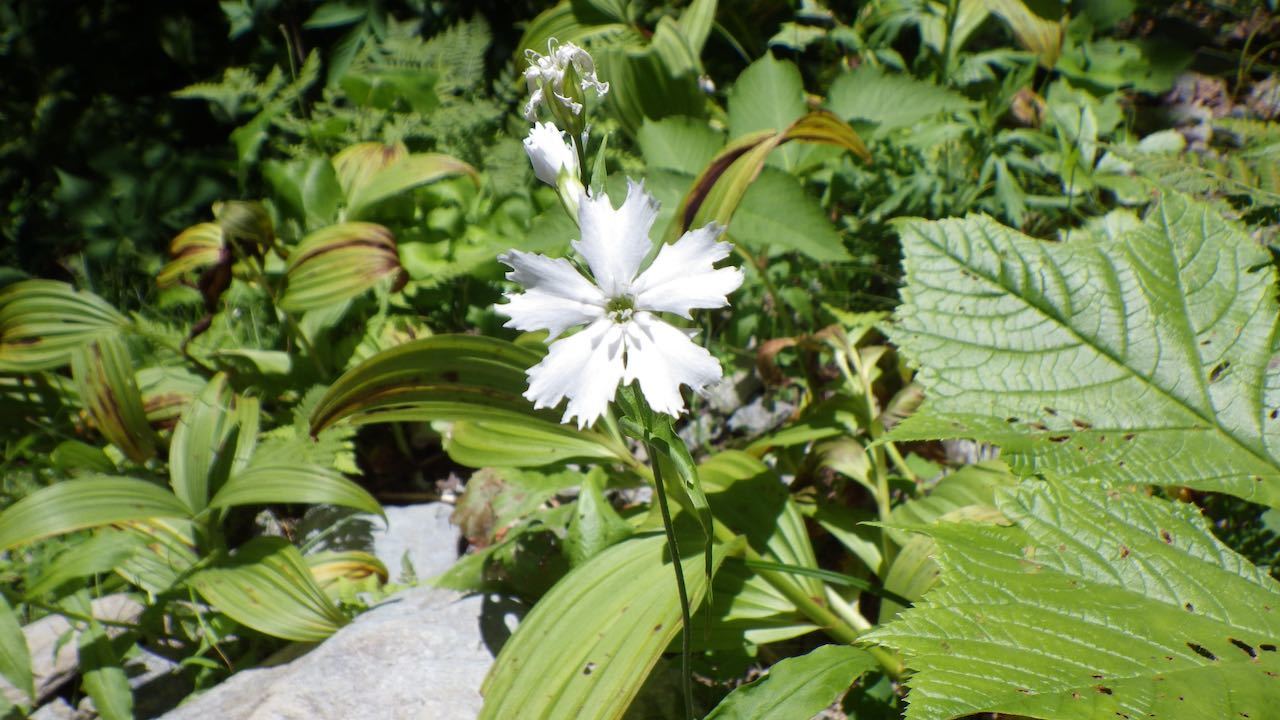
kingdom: Plantae
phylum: Tracheophyta
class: Magnoliopsida
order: Caryophyllales
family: Caryophyllaceae
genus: Silene
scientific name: Silene gracillima
